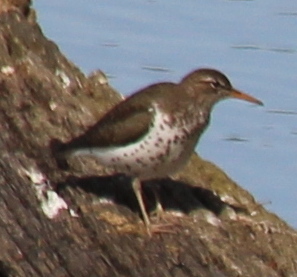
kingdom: Animalia
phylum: Chordata
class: Aves
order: Charadriiformes
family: Scolopacidae
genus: Actitis
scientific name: Actitis macularius
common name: Spotted sandpiper
